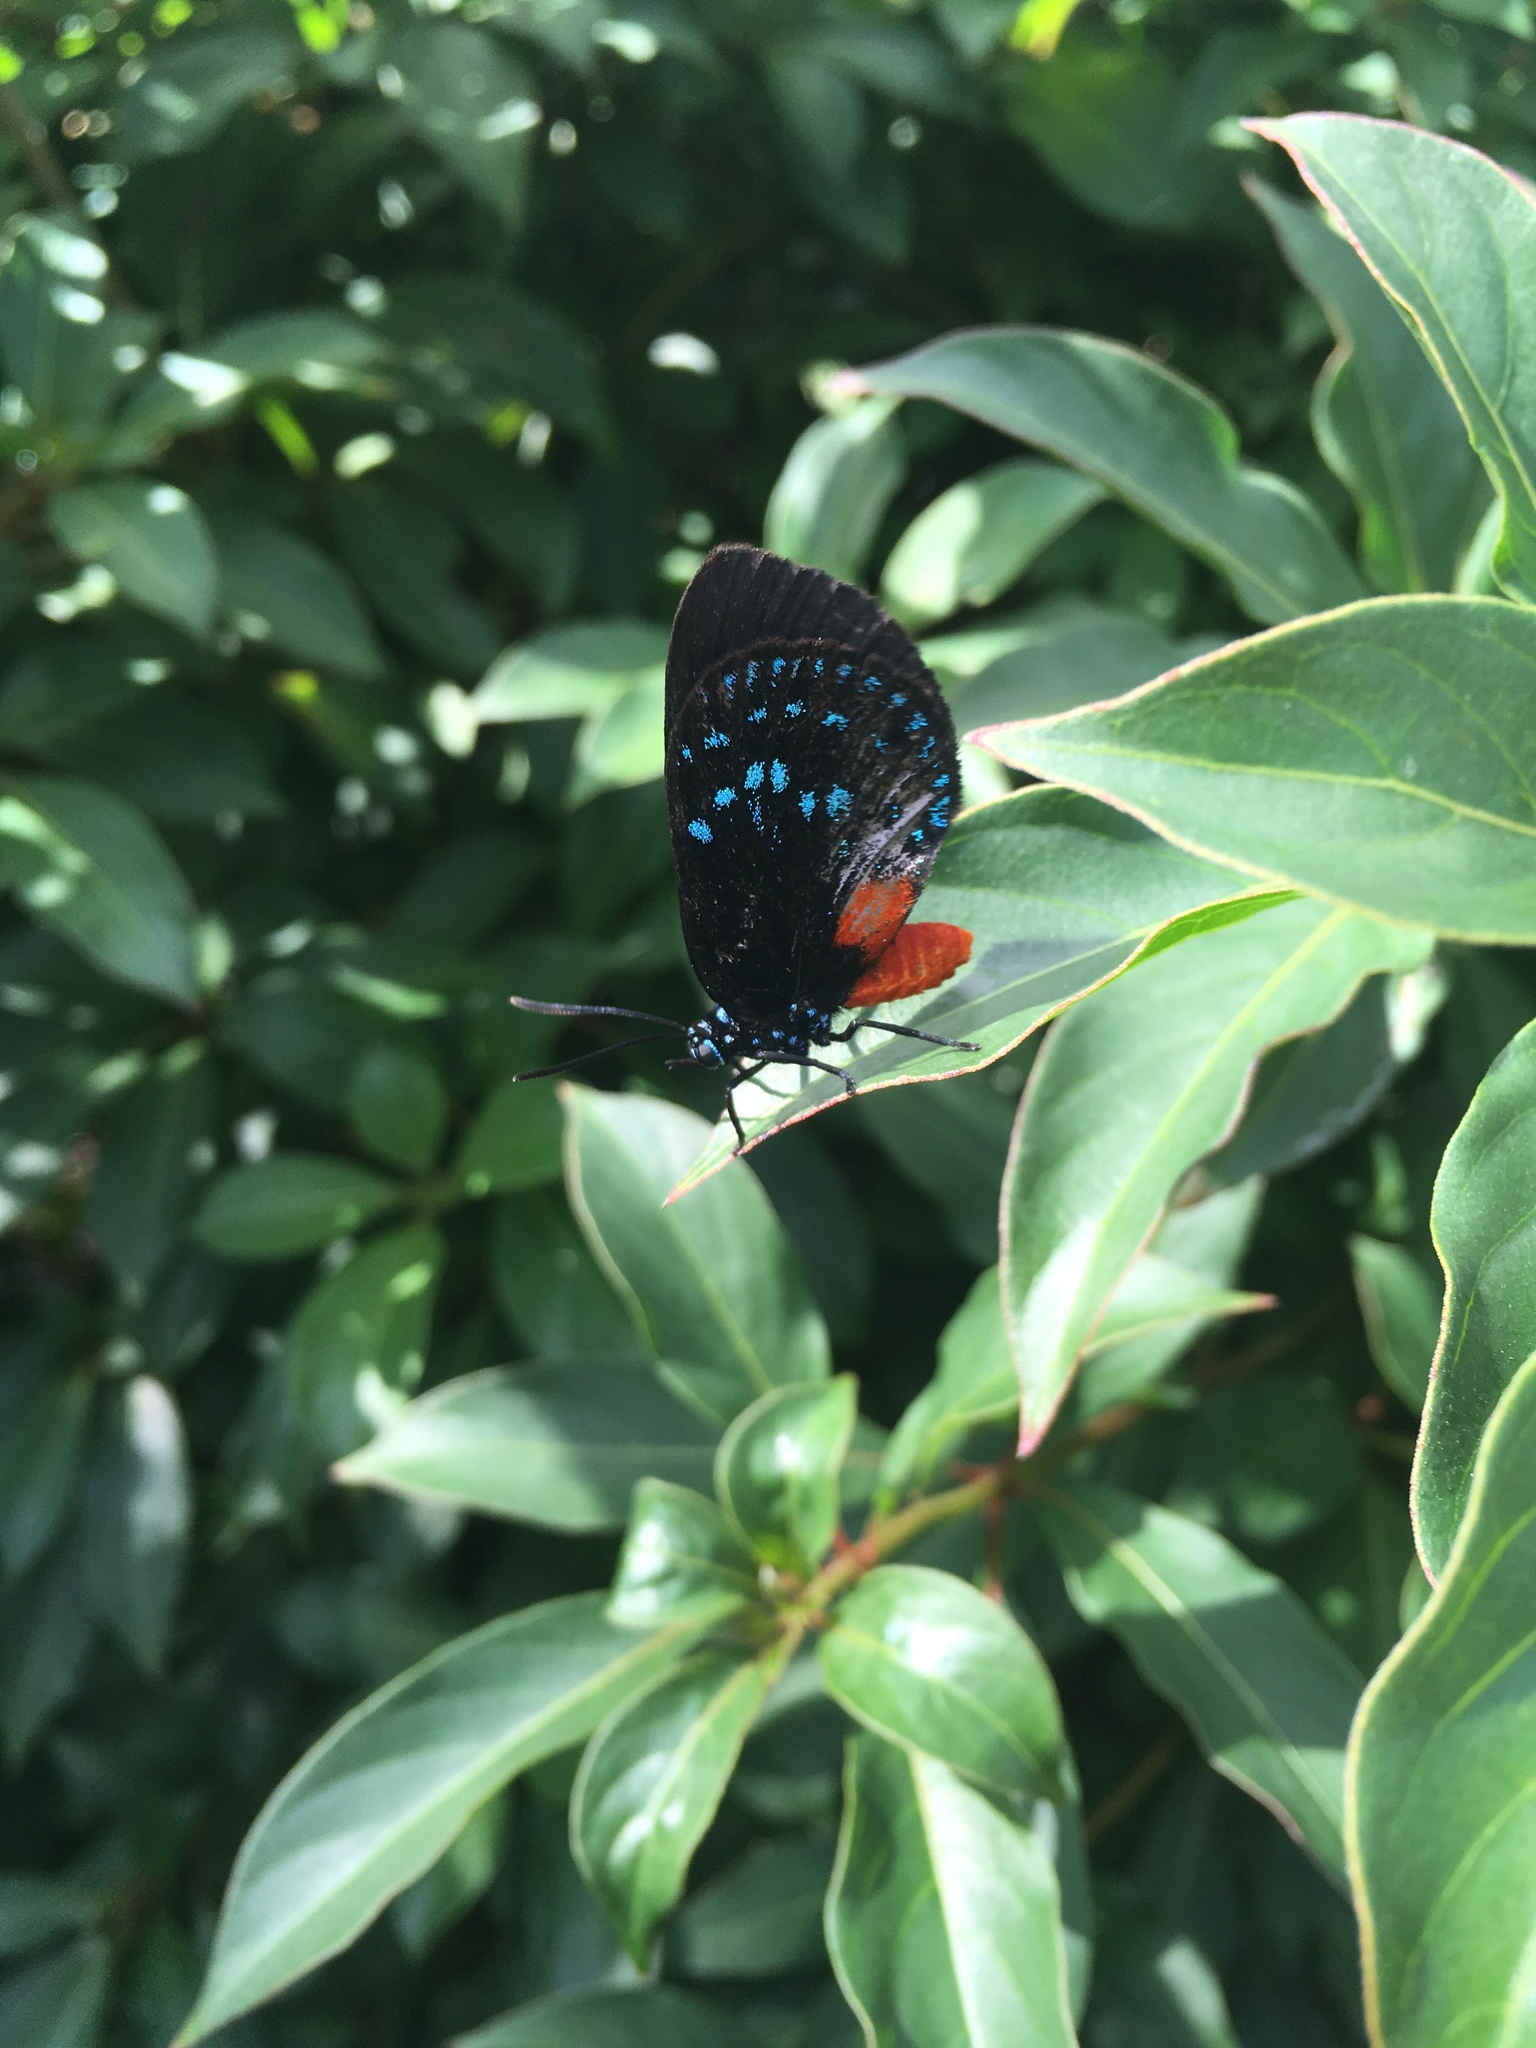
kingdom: Animalia
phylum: Arthropoda
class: Insecta
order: Lepidoptera
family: Lycaenidae
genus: Eumaeus
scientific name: Eumaeus atala
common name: Atala
